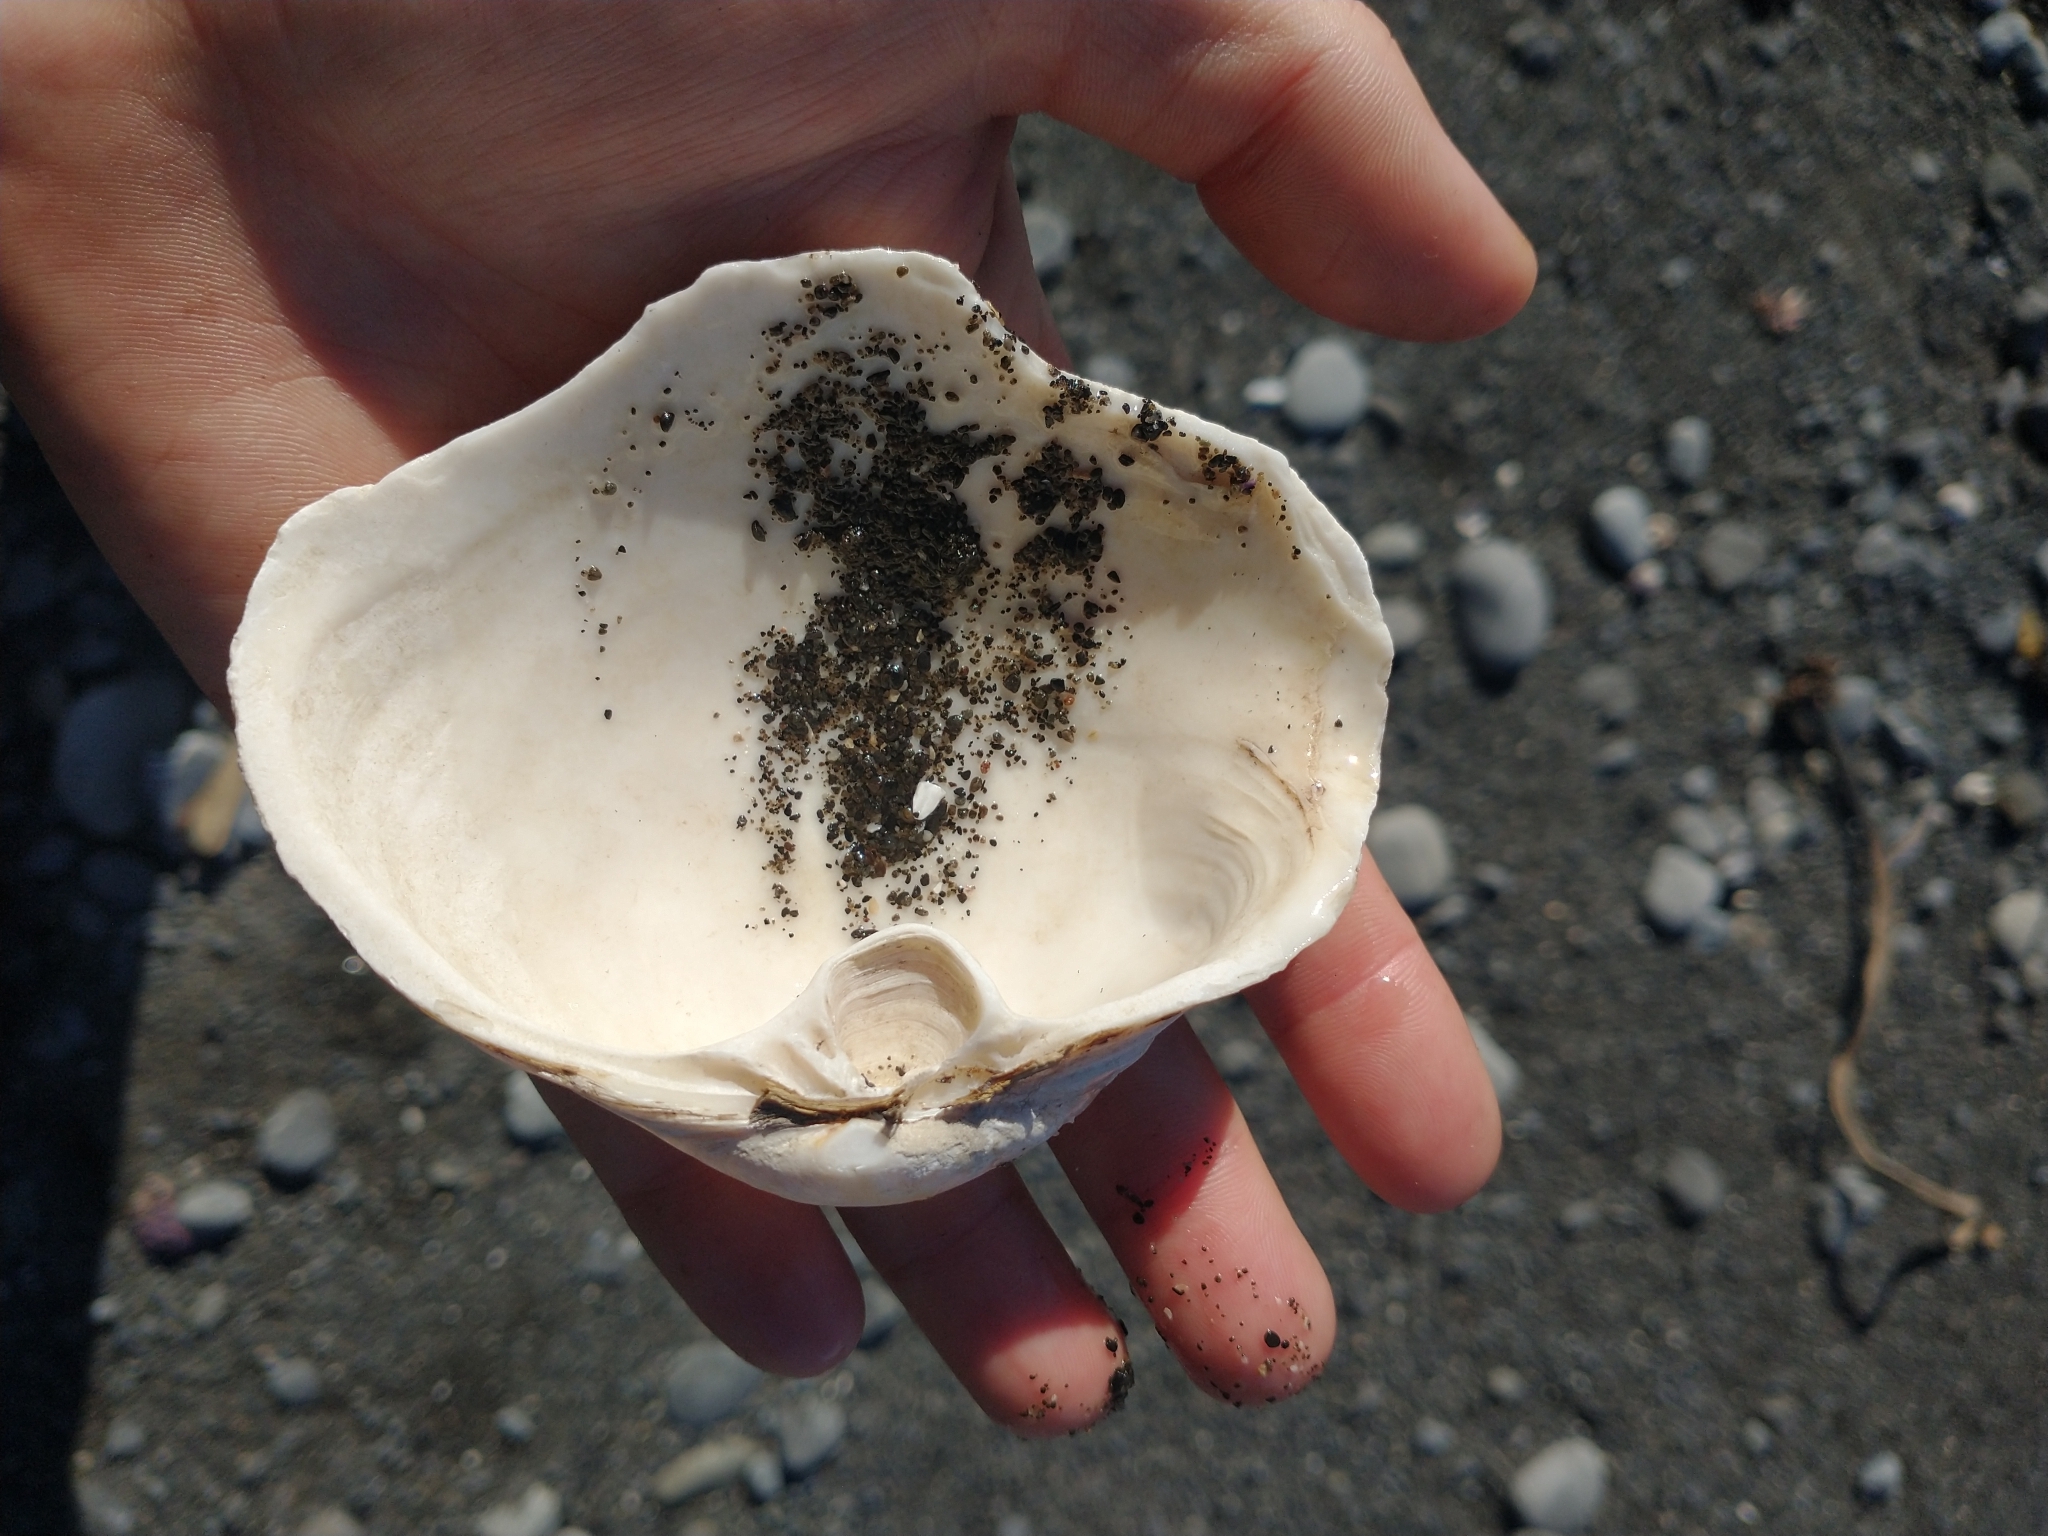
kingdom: Animalia
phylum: Mollusca
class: Bivalvia
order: Venerida
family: Mactridae
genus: Tresus
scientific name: Tresus capax
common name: Fat gaper
